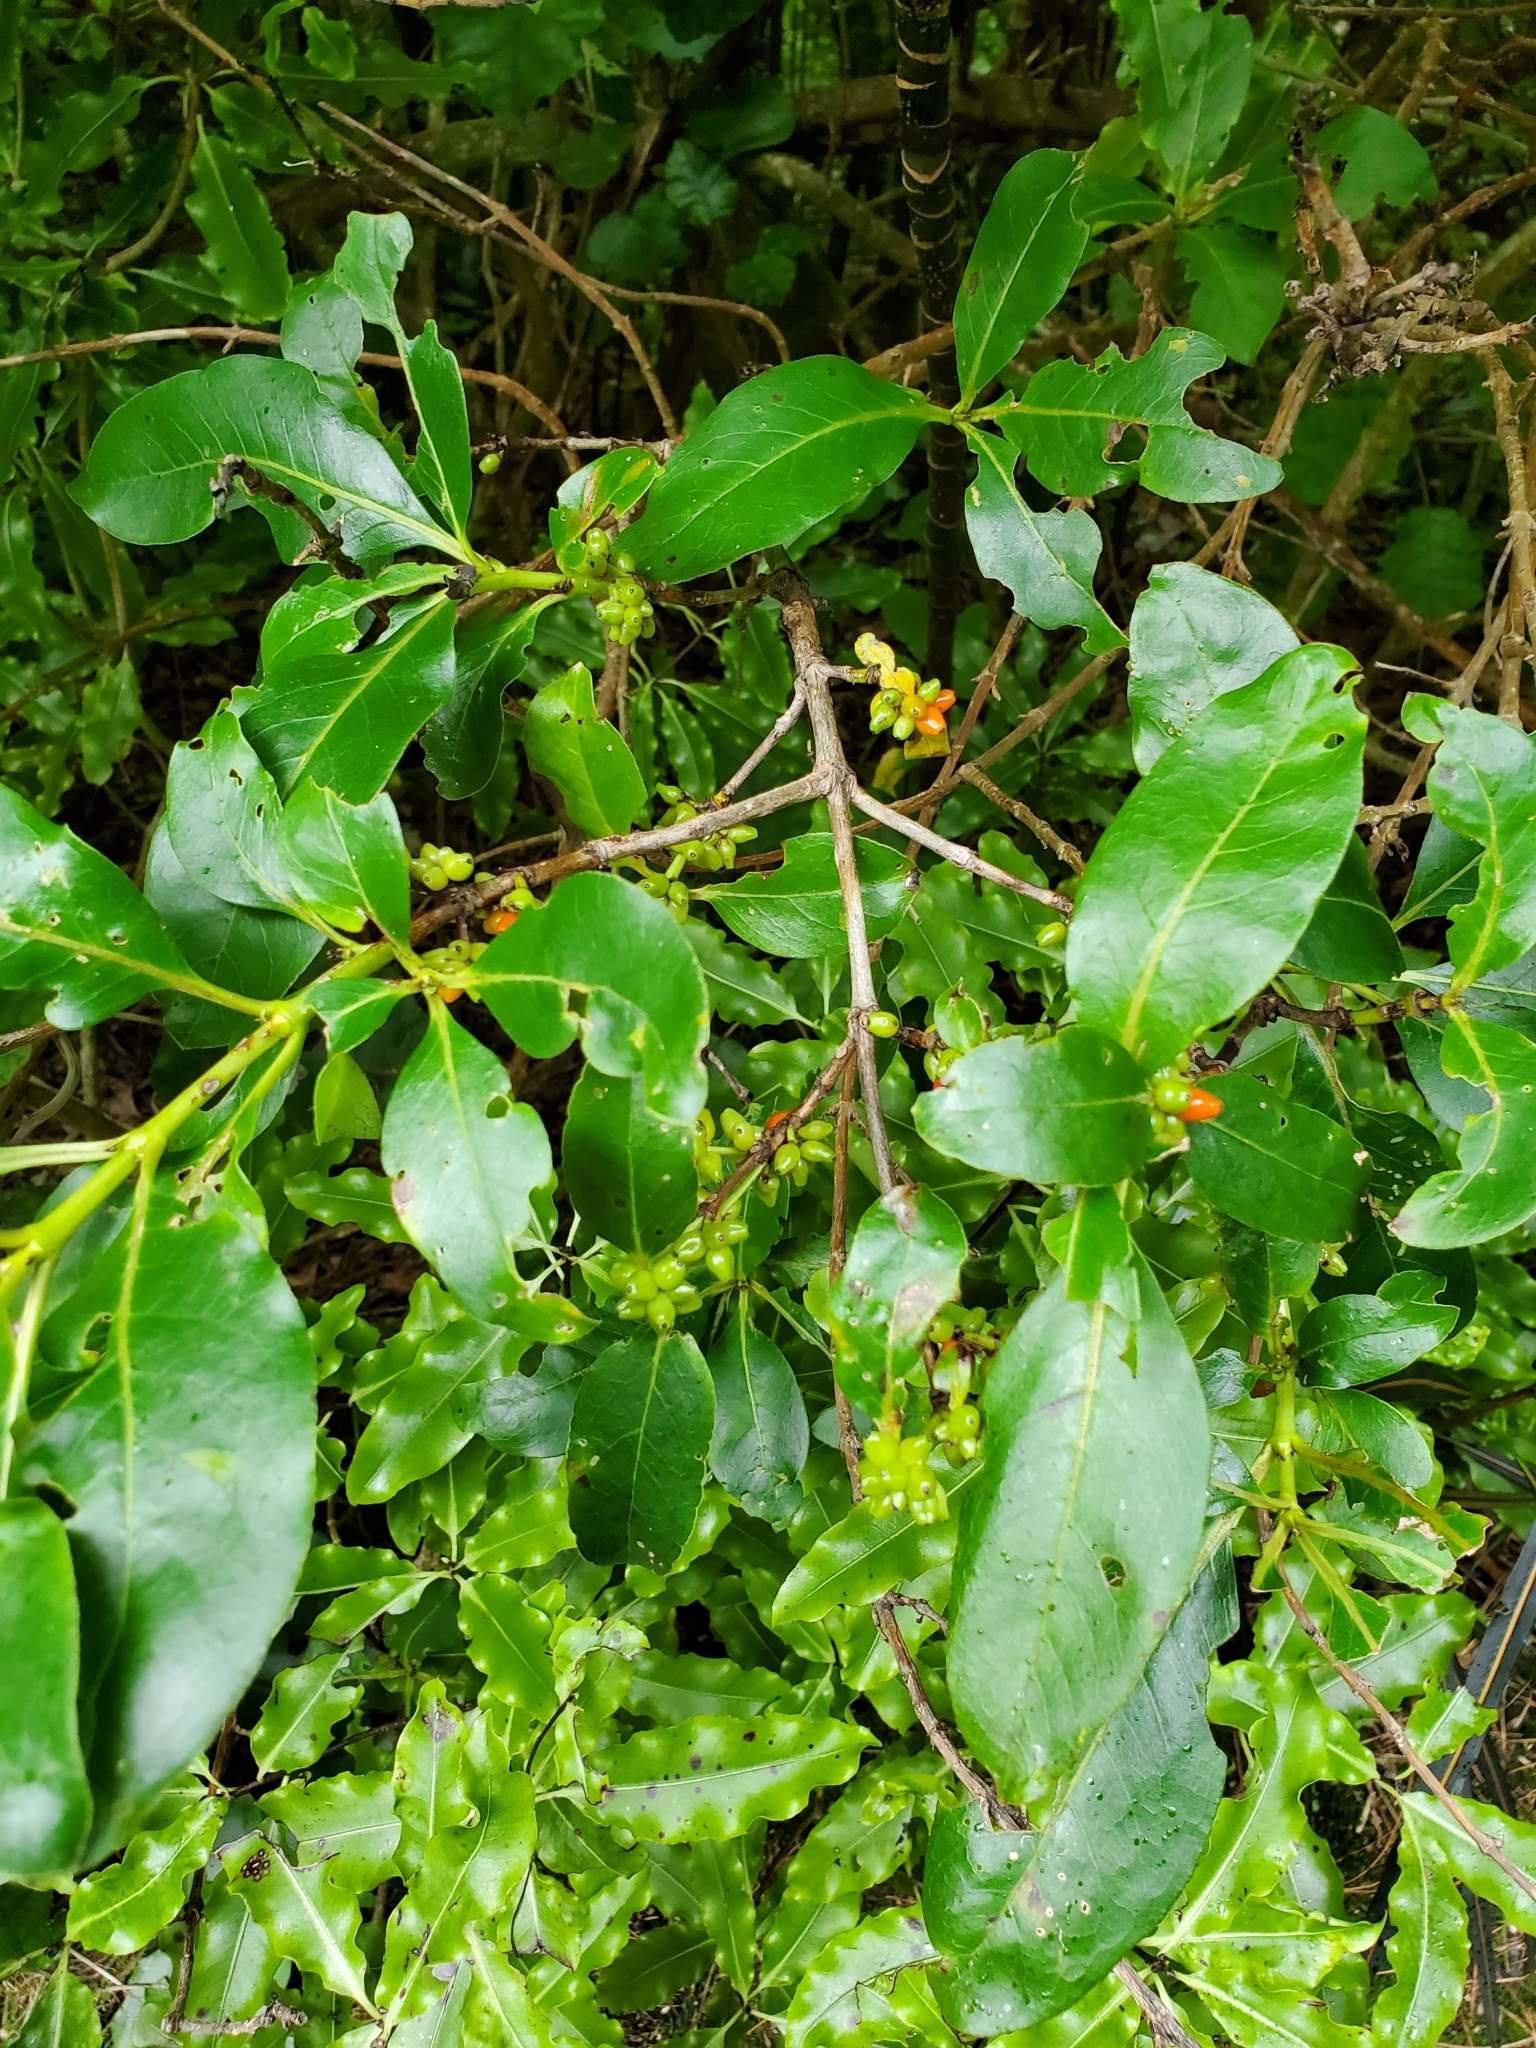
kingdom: Plantae
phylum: Tracheophyta
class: Magnoliopsida
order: Gentianales
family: Rubiaceae
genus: Coprosma
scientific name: Coprosma robusta
